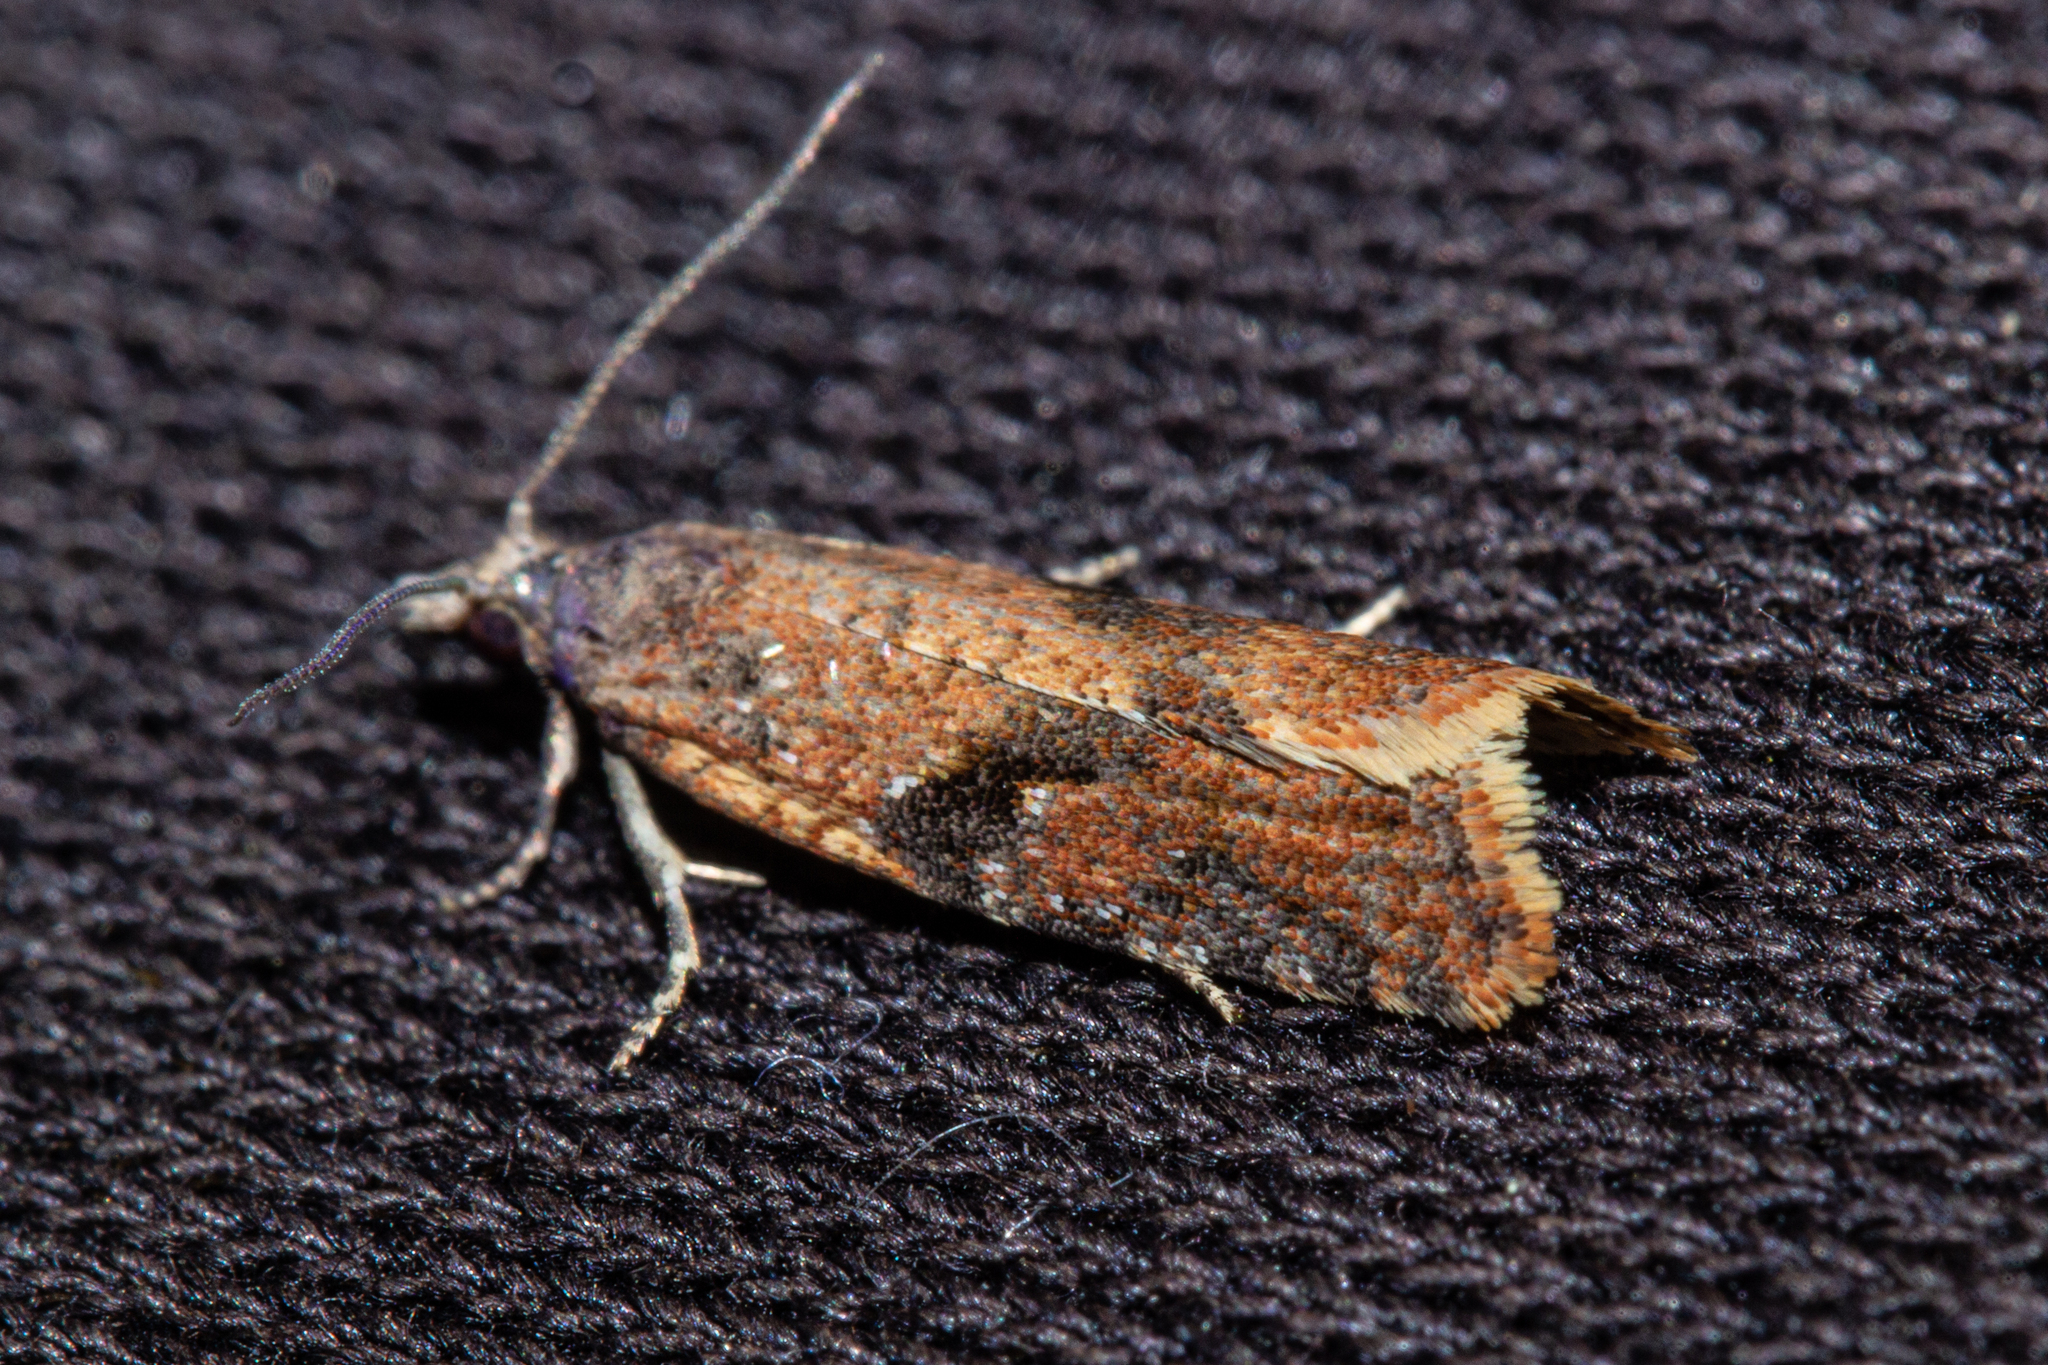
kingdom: Animalia
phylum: Arthropoda
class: Insecta
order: Lepidoptera
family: Tortricidae
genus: Capua
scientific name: Capua semiferana
